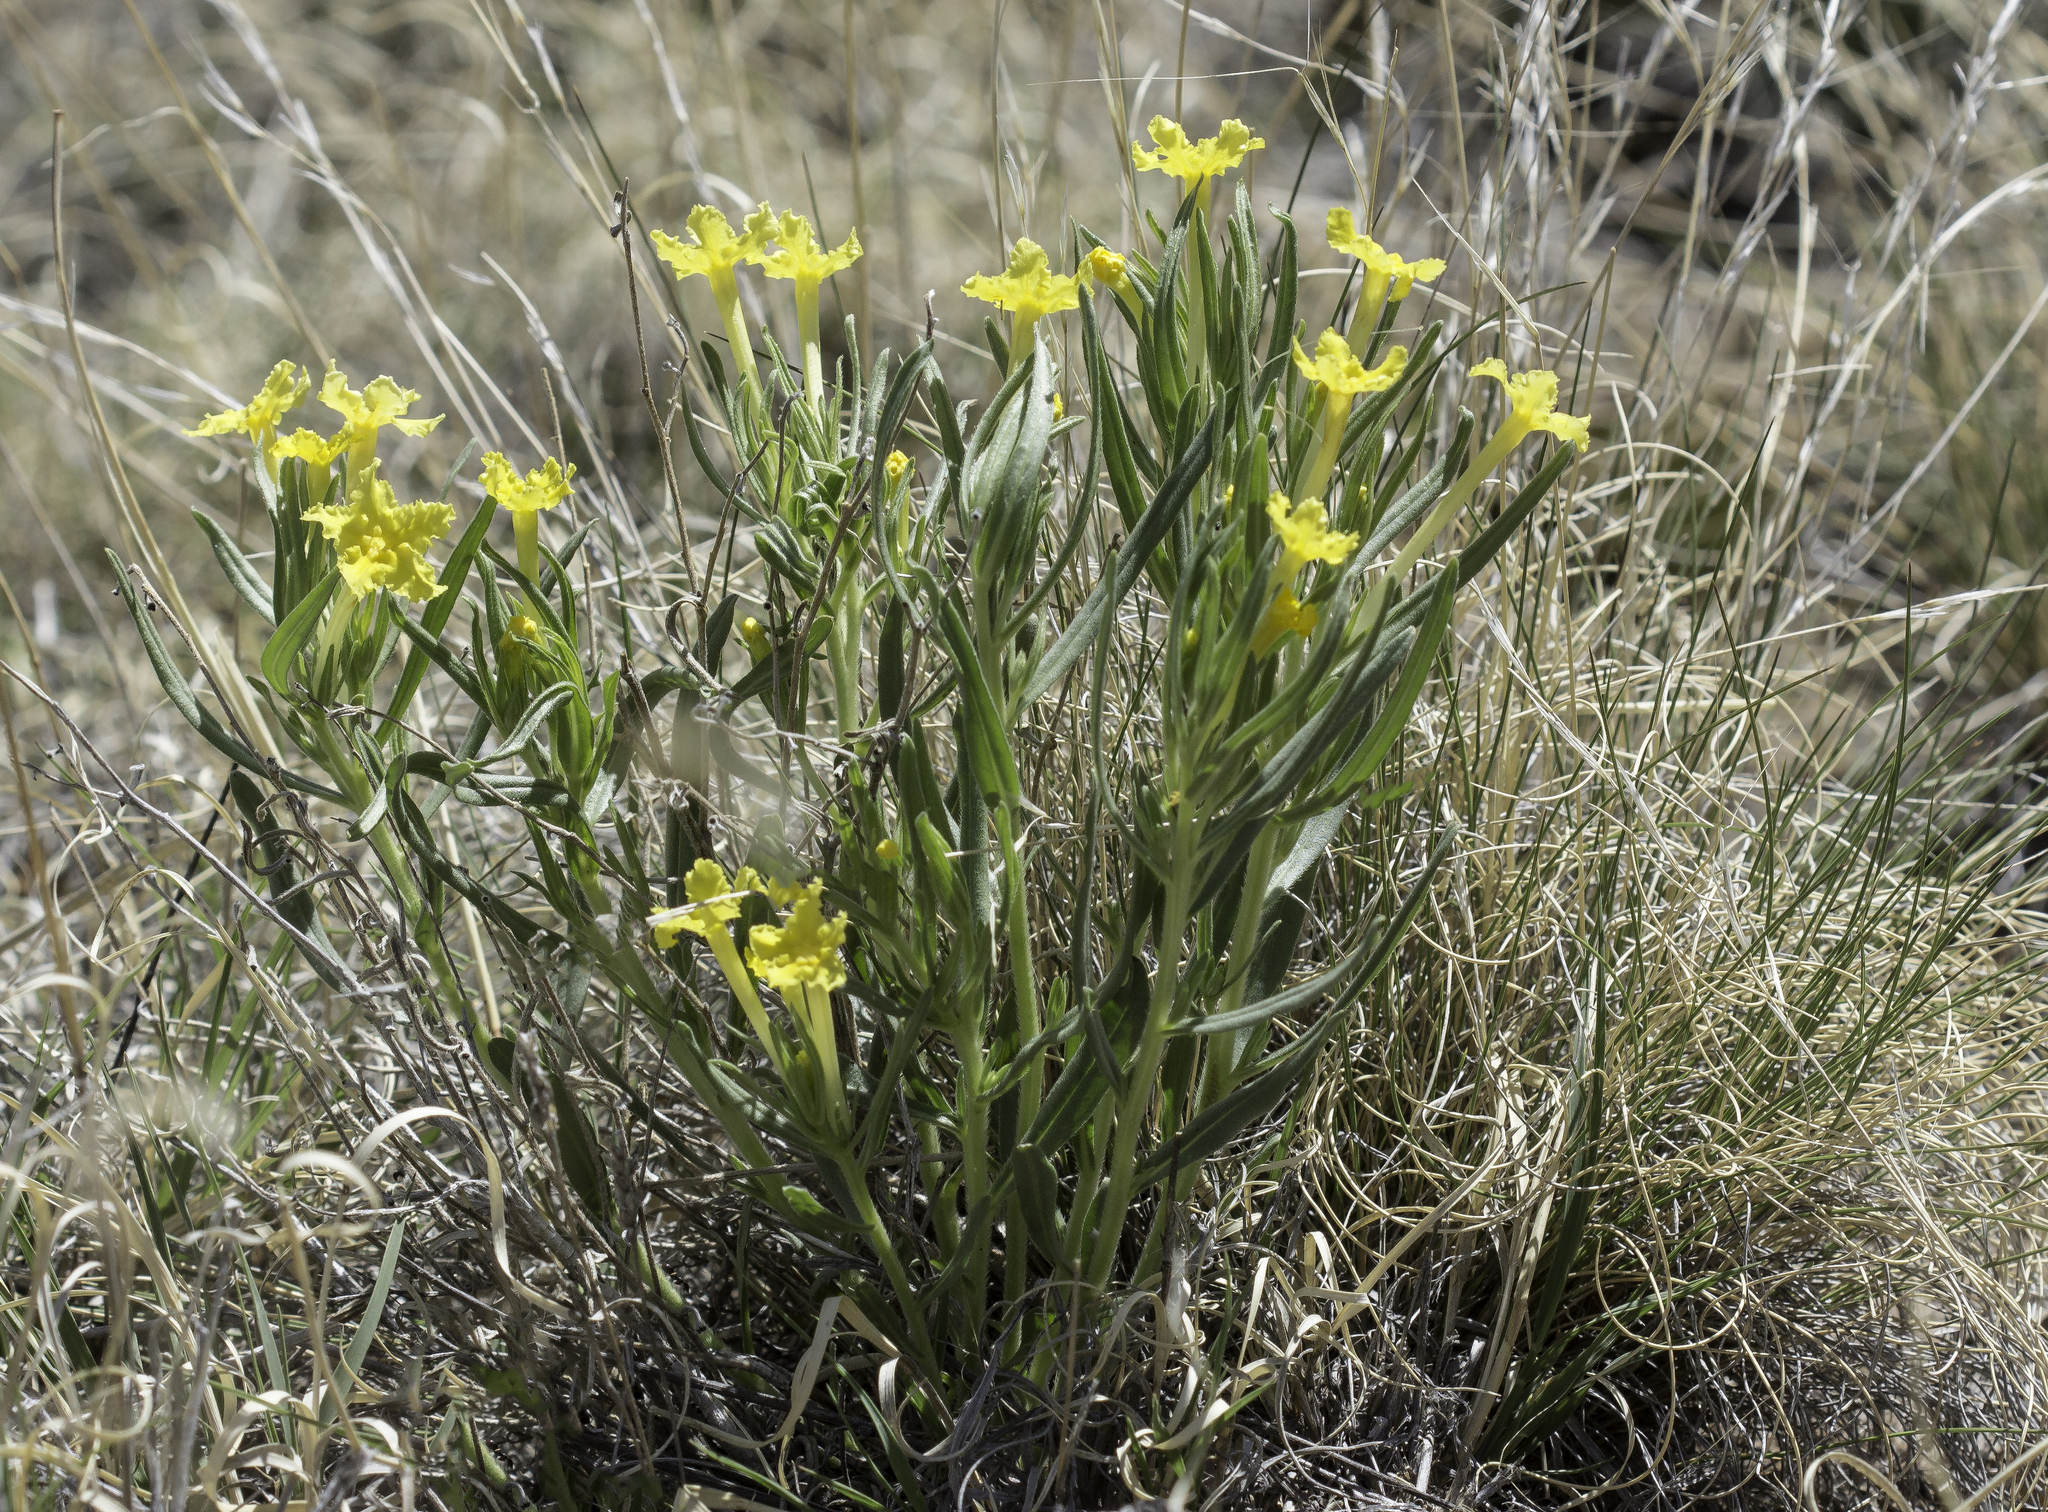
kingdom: Plantae
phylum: Tracheophyta
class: Magnoliopsida
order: Boraginales
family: Boraginaceae
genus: Lithospermum
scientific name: Lithospermum incisum
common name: Fringed gromwell
